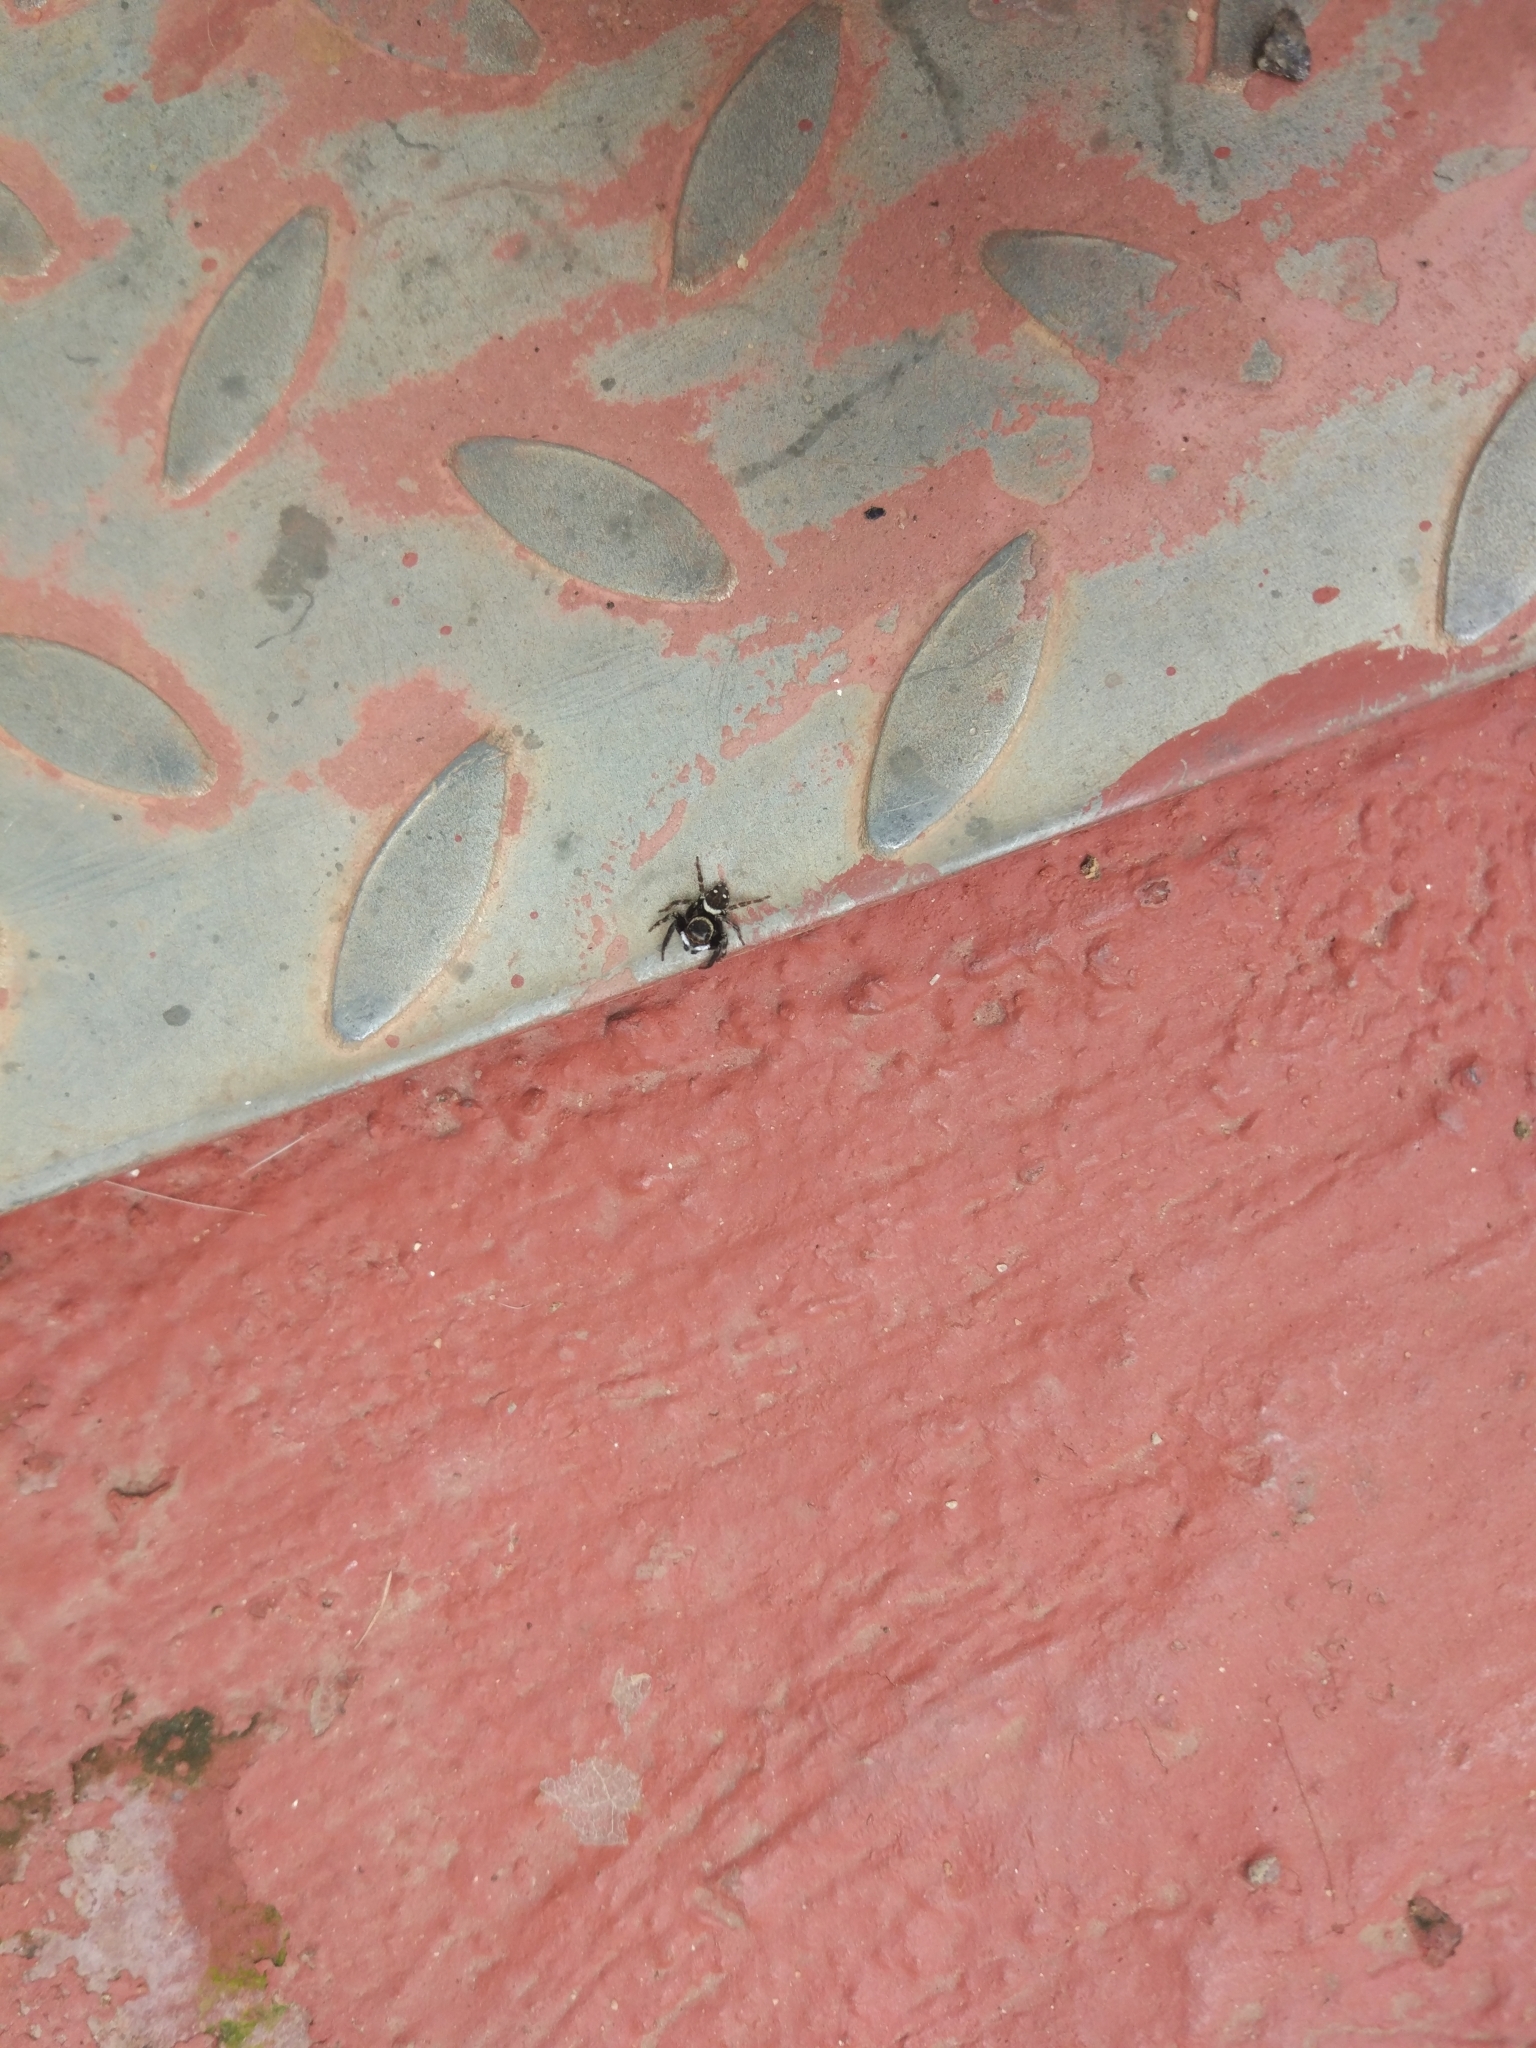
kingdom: Animalia
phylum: Arthropoda
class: Arachnida
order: Araneae
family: Salticidae
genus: Hasarius
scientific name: Hasarius adansoni
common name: Jumping spider
